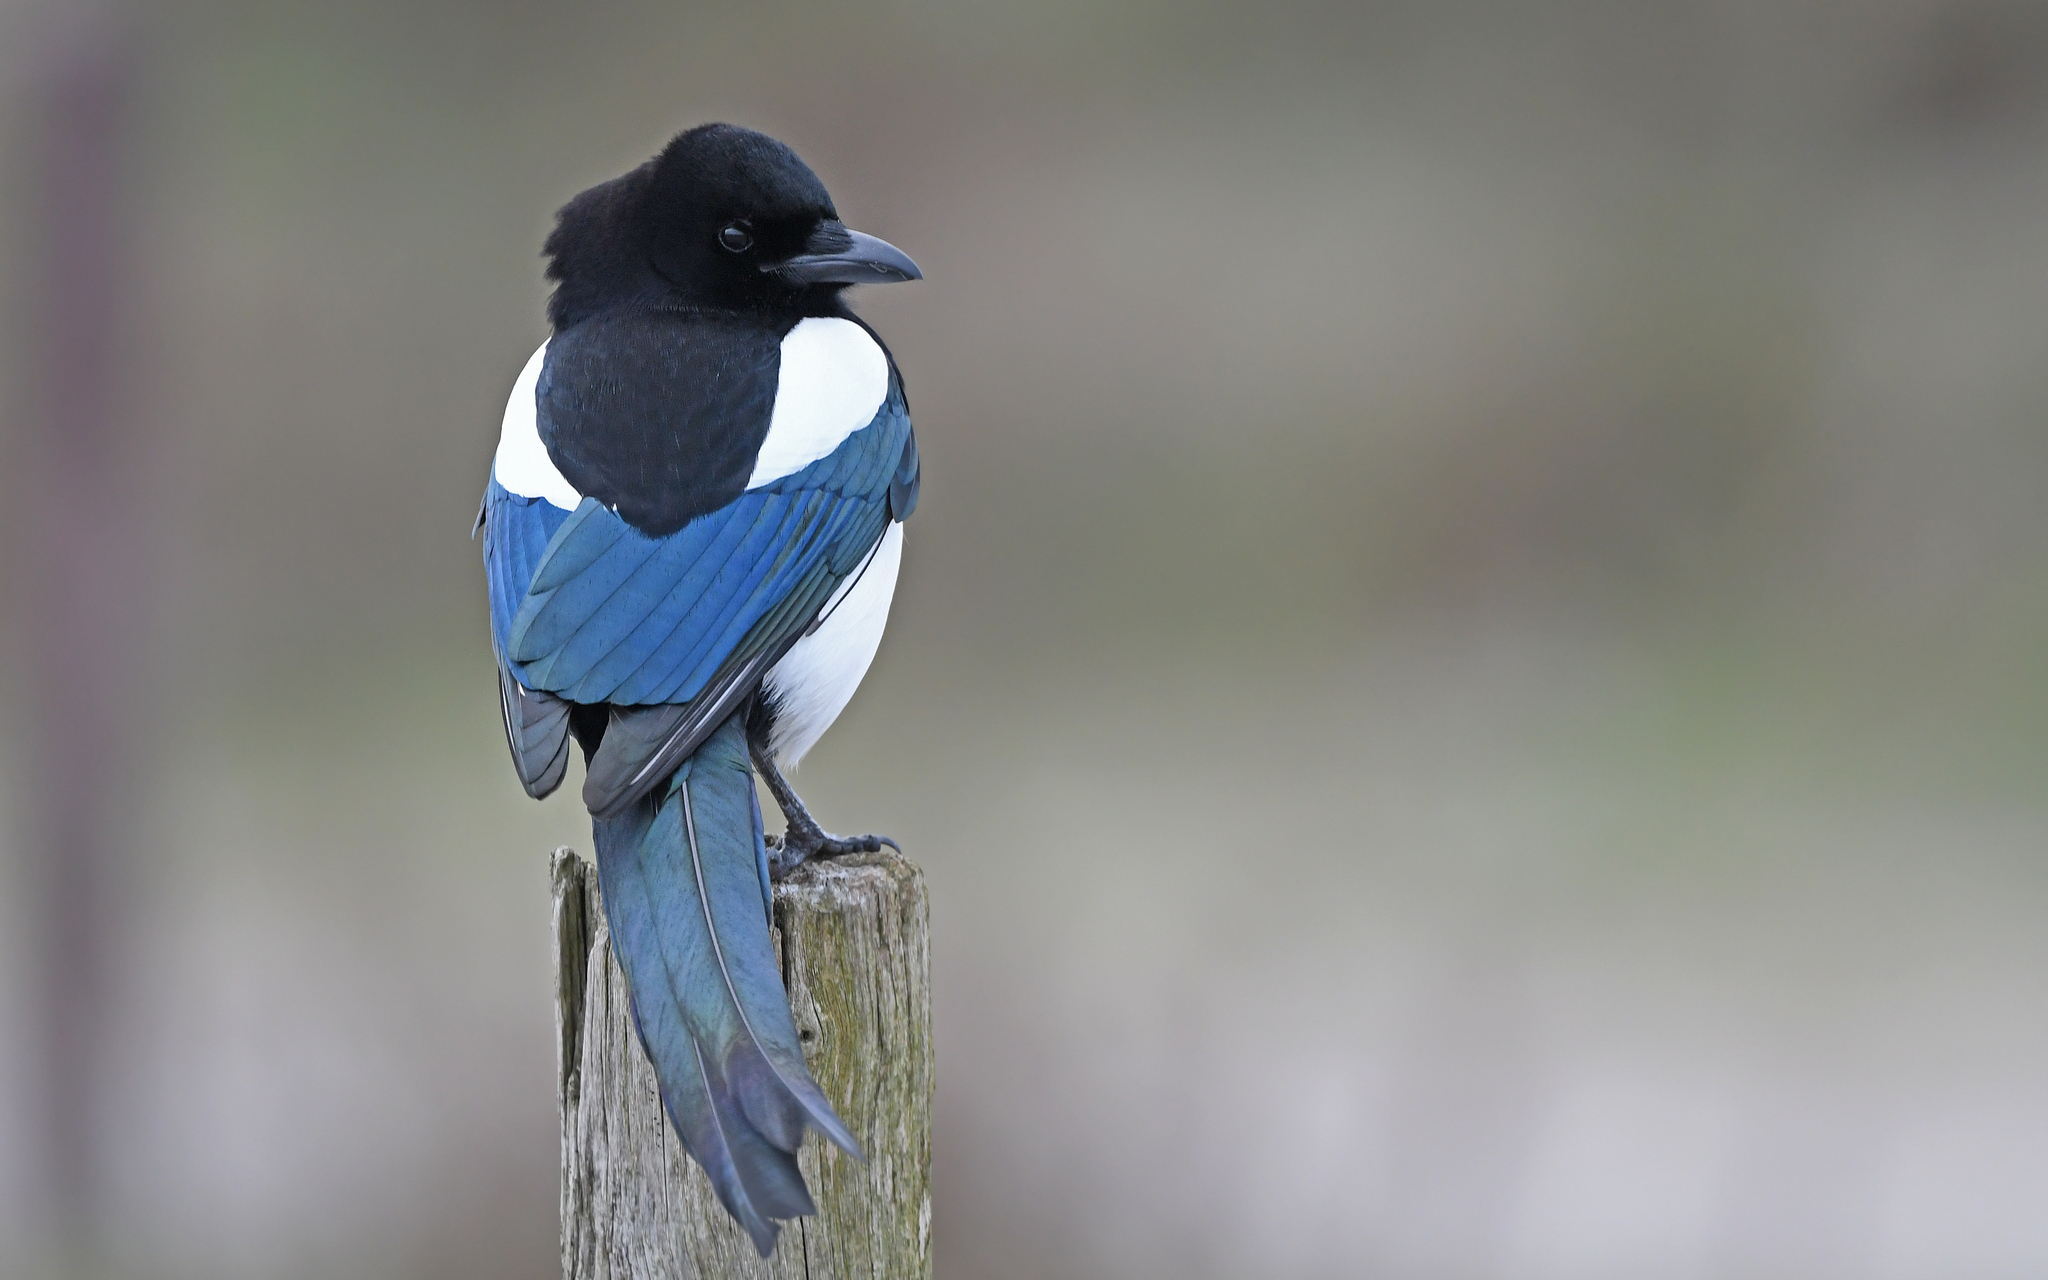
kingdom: Animalia
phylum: Chordata
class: Aves
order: Passeriformes
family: Corvidae
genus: Pica
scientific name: Pica pica
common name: Eurasian magpie
